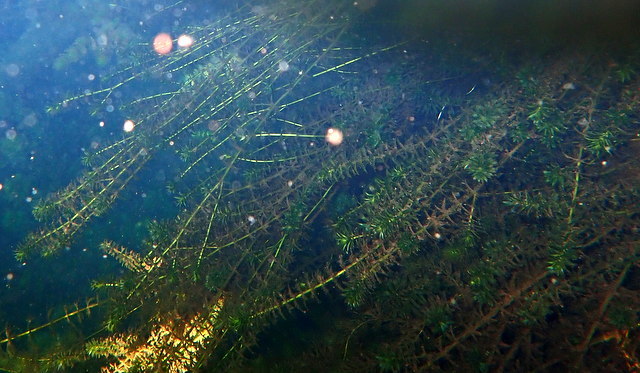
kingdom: Plantae
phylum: Tracheophyta
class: Liliopsida
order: Alismatales
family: Hydrocharitaceae
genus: Hydrilla
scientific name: Hydrilla verticillata
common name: Florida-elodea
